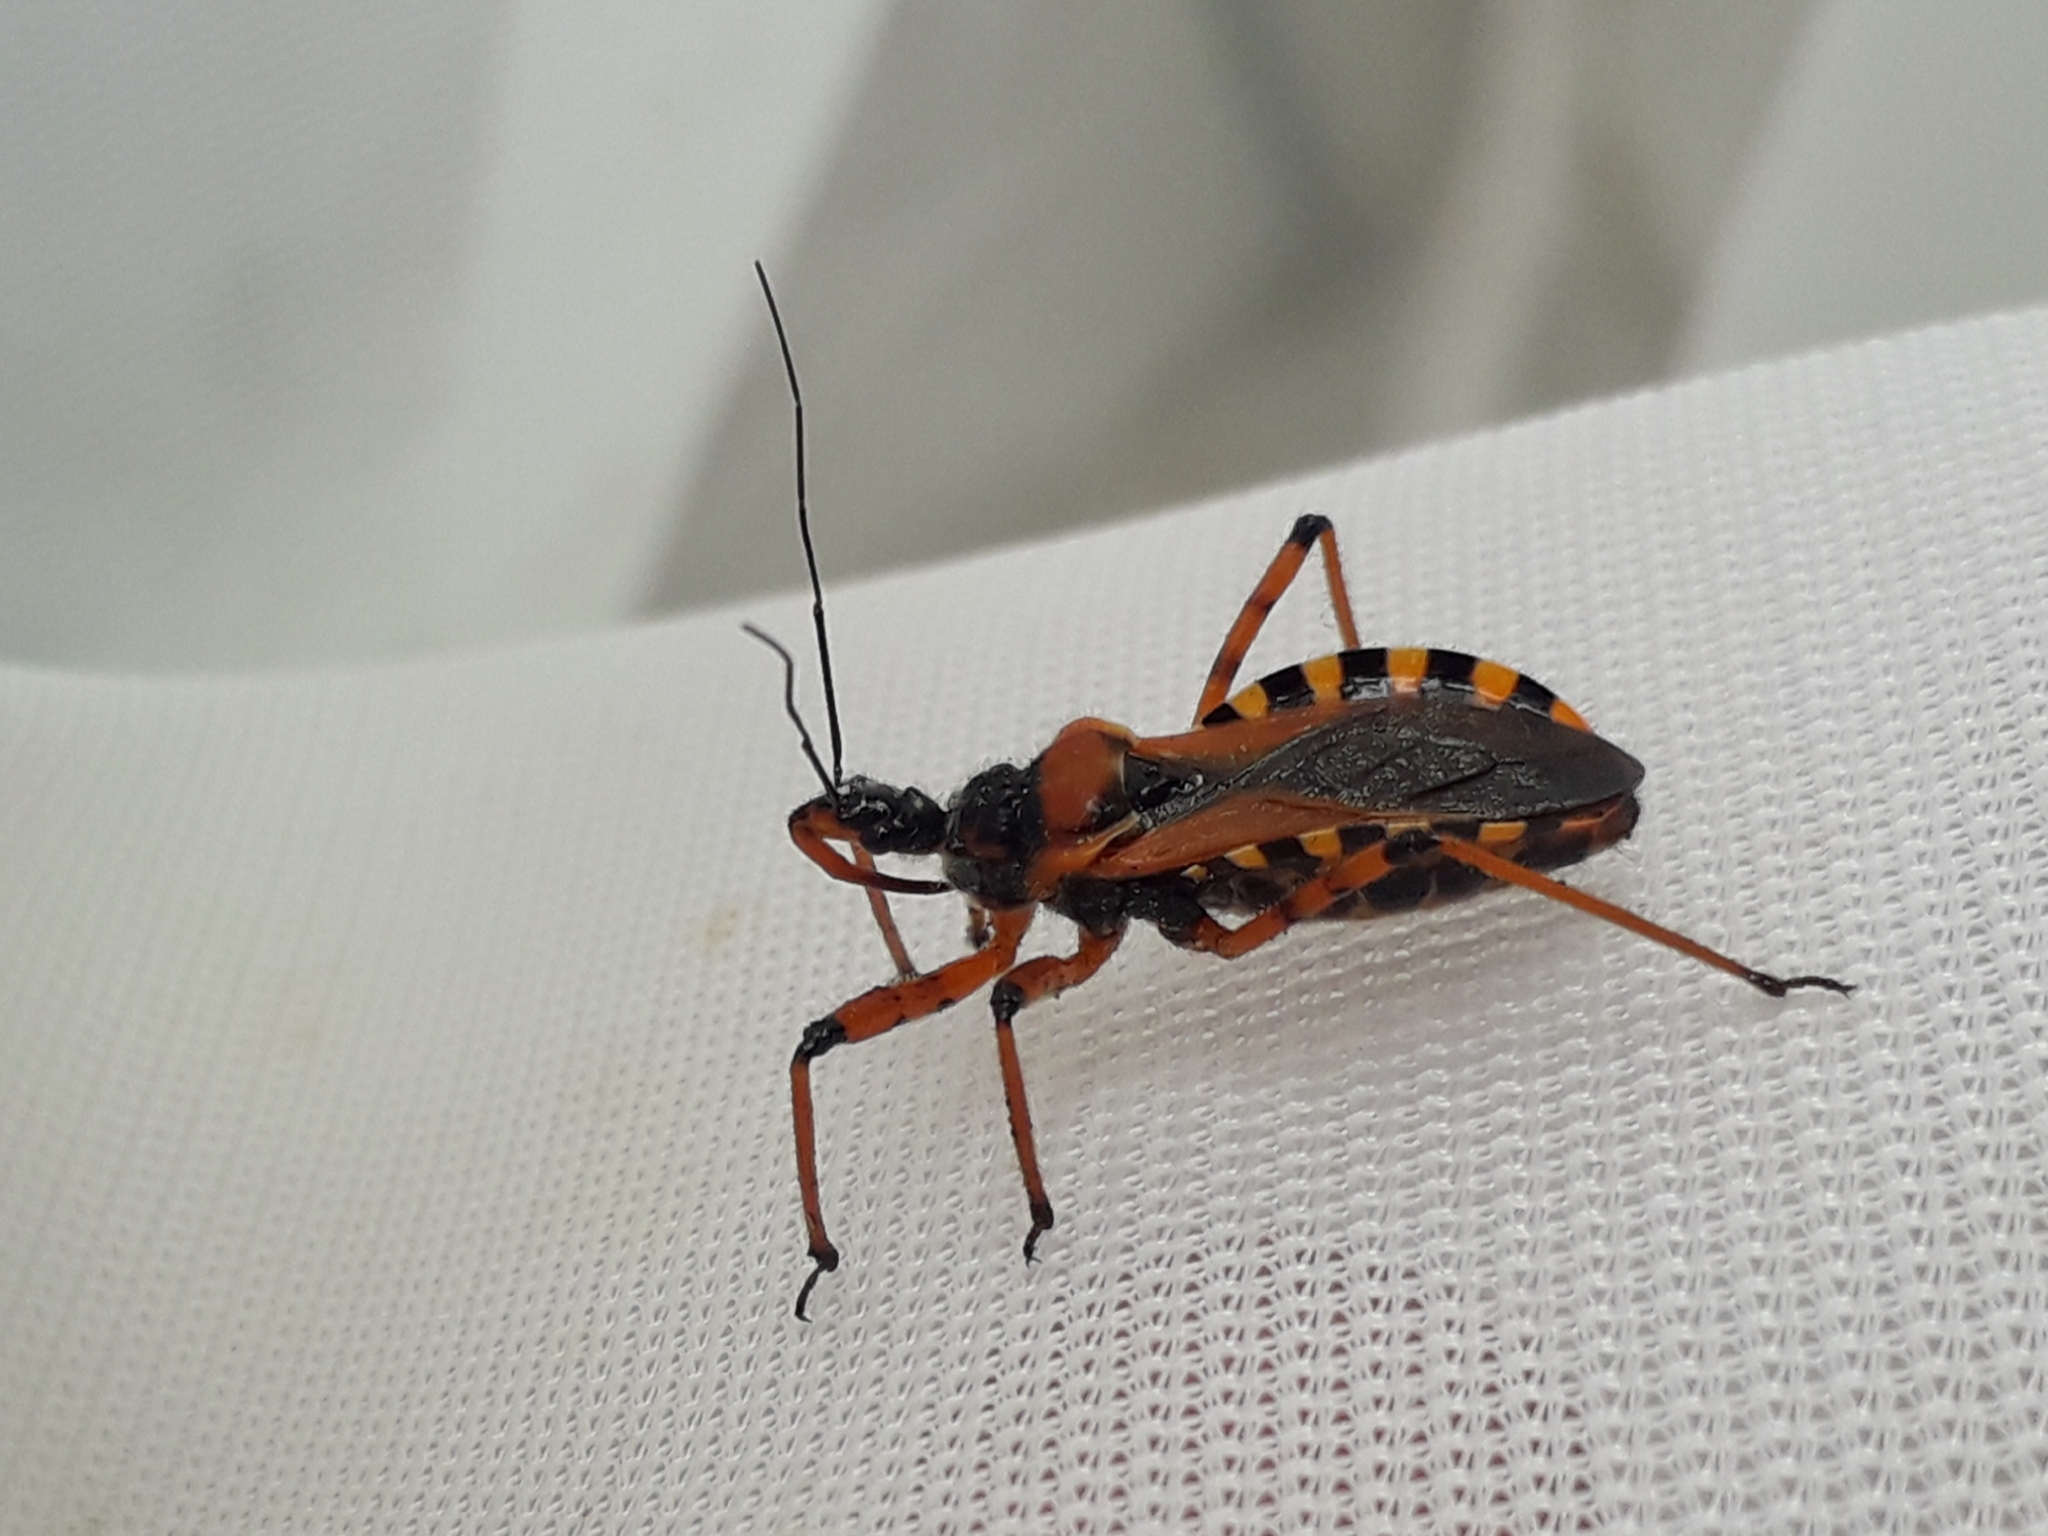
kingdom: Animalia
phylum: Arthropoda
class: Insecta
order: Hemiptera
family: Reduviidae
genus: Rhynocoris
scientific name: Rhynocoris iracundus
